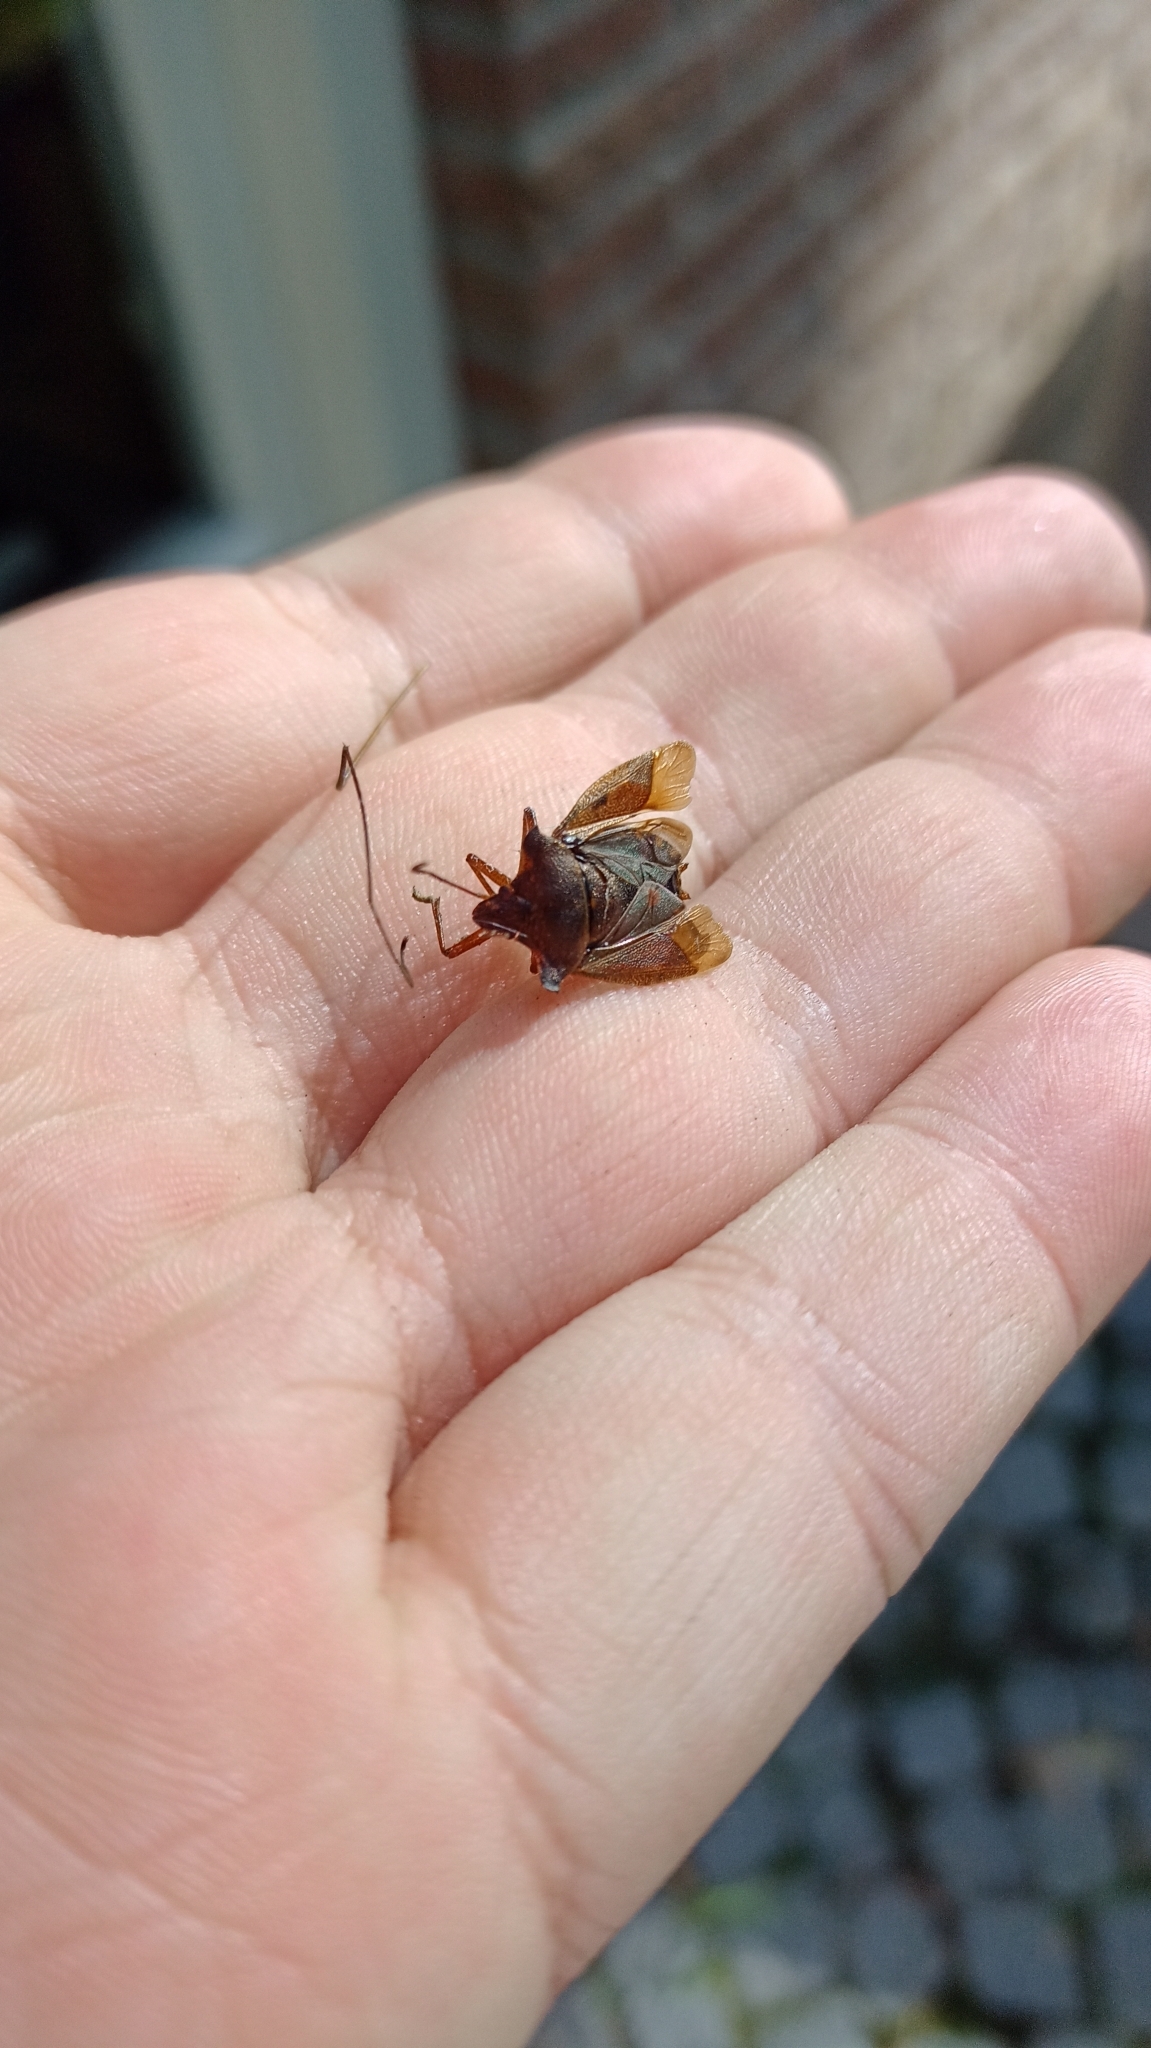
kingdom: Animalia
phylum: Arthropoda
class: Insecta
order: Hemiptera
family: Pentatomidae
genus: Pentatoma
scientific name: Pentatoma rufipes
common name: Forest bug
